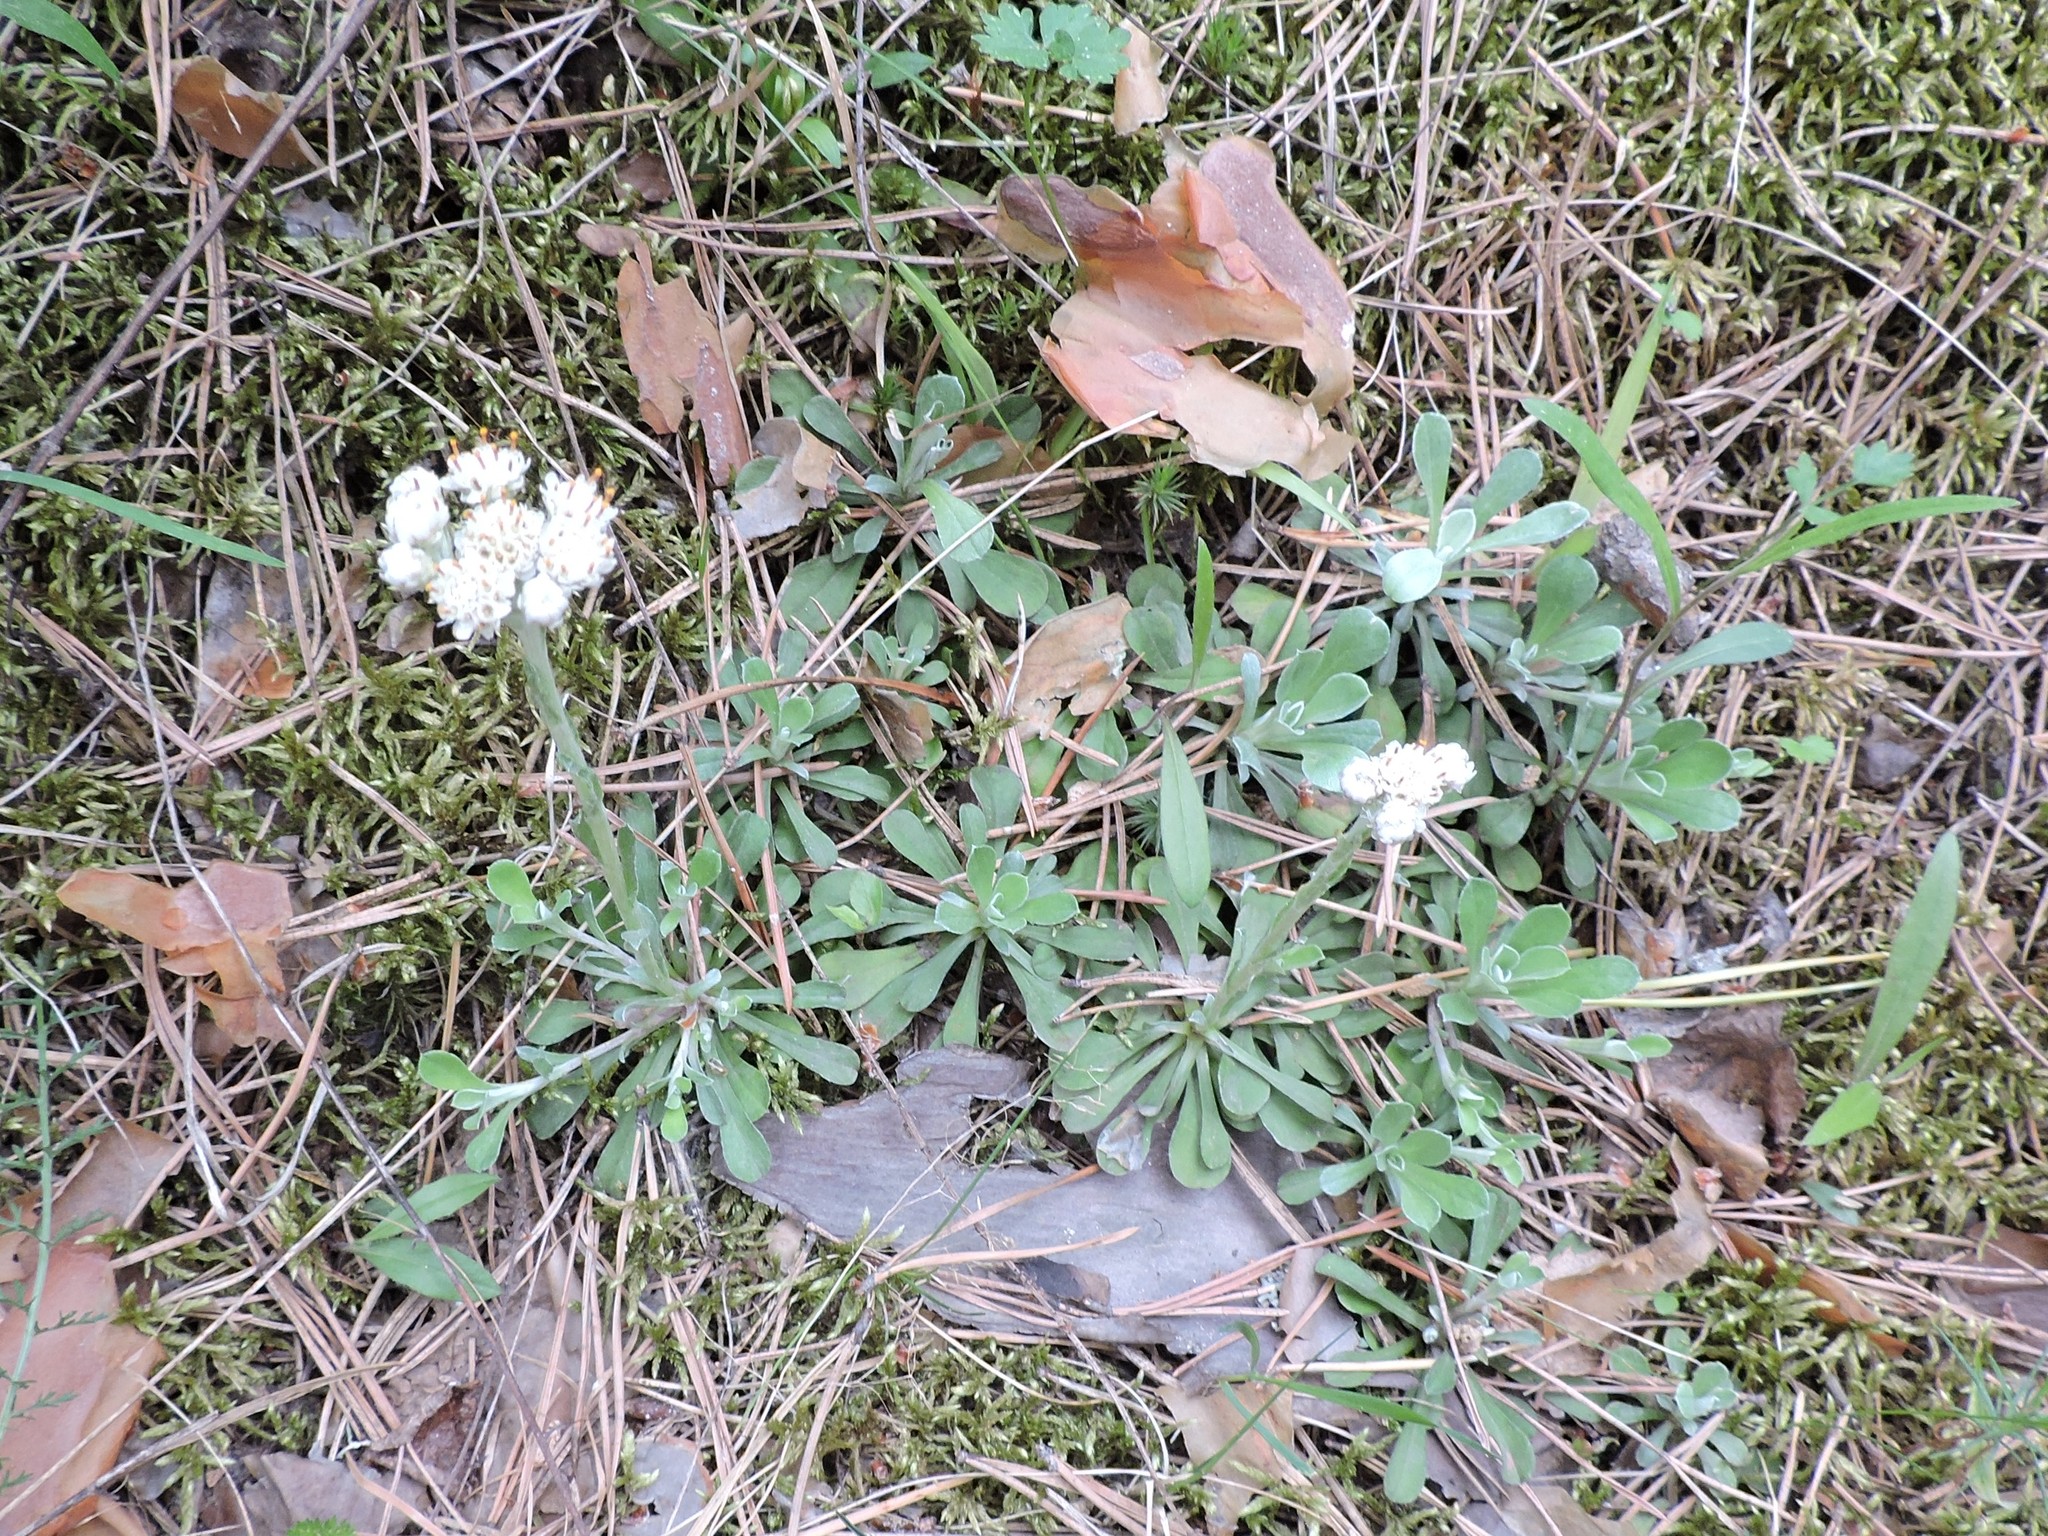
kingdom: Plantae
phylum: Tracheophyta
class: Magnoliopsida
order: Asterales
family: Asteraceae
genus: Antennaria
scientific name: Antennaria dioica
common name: Mountain everlasting
